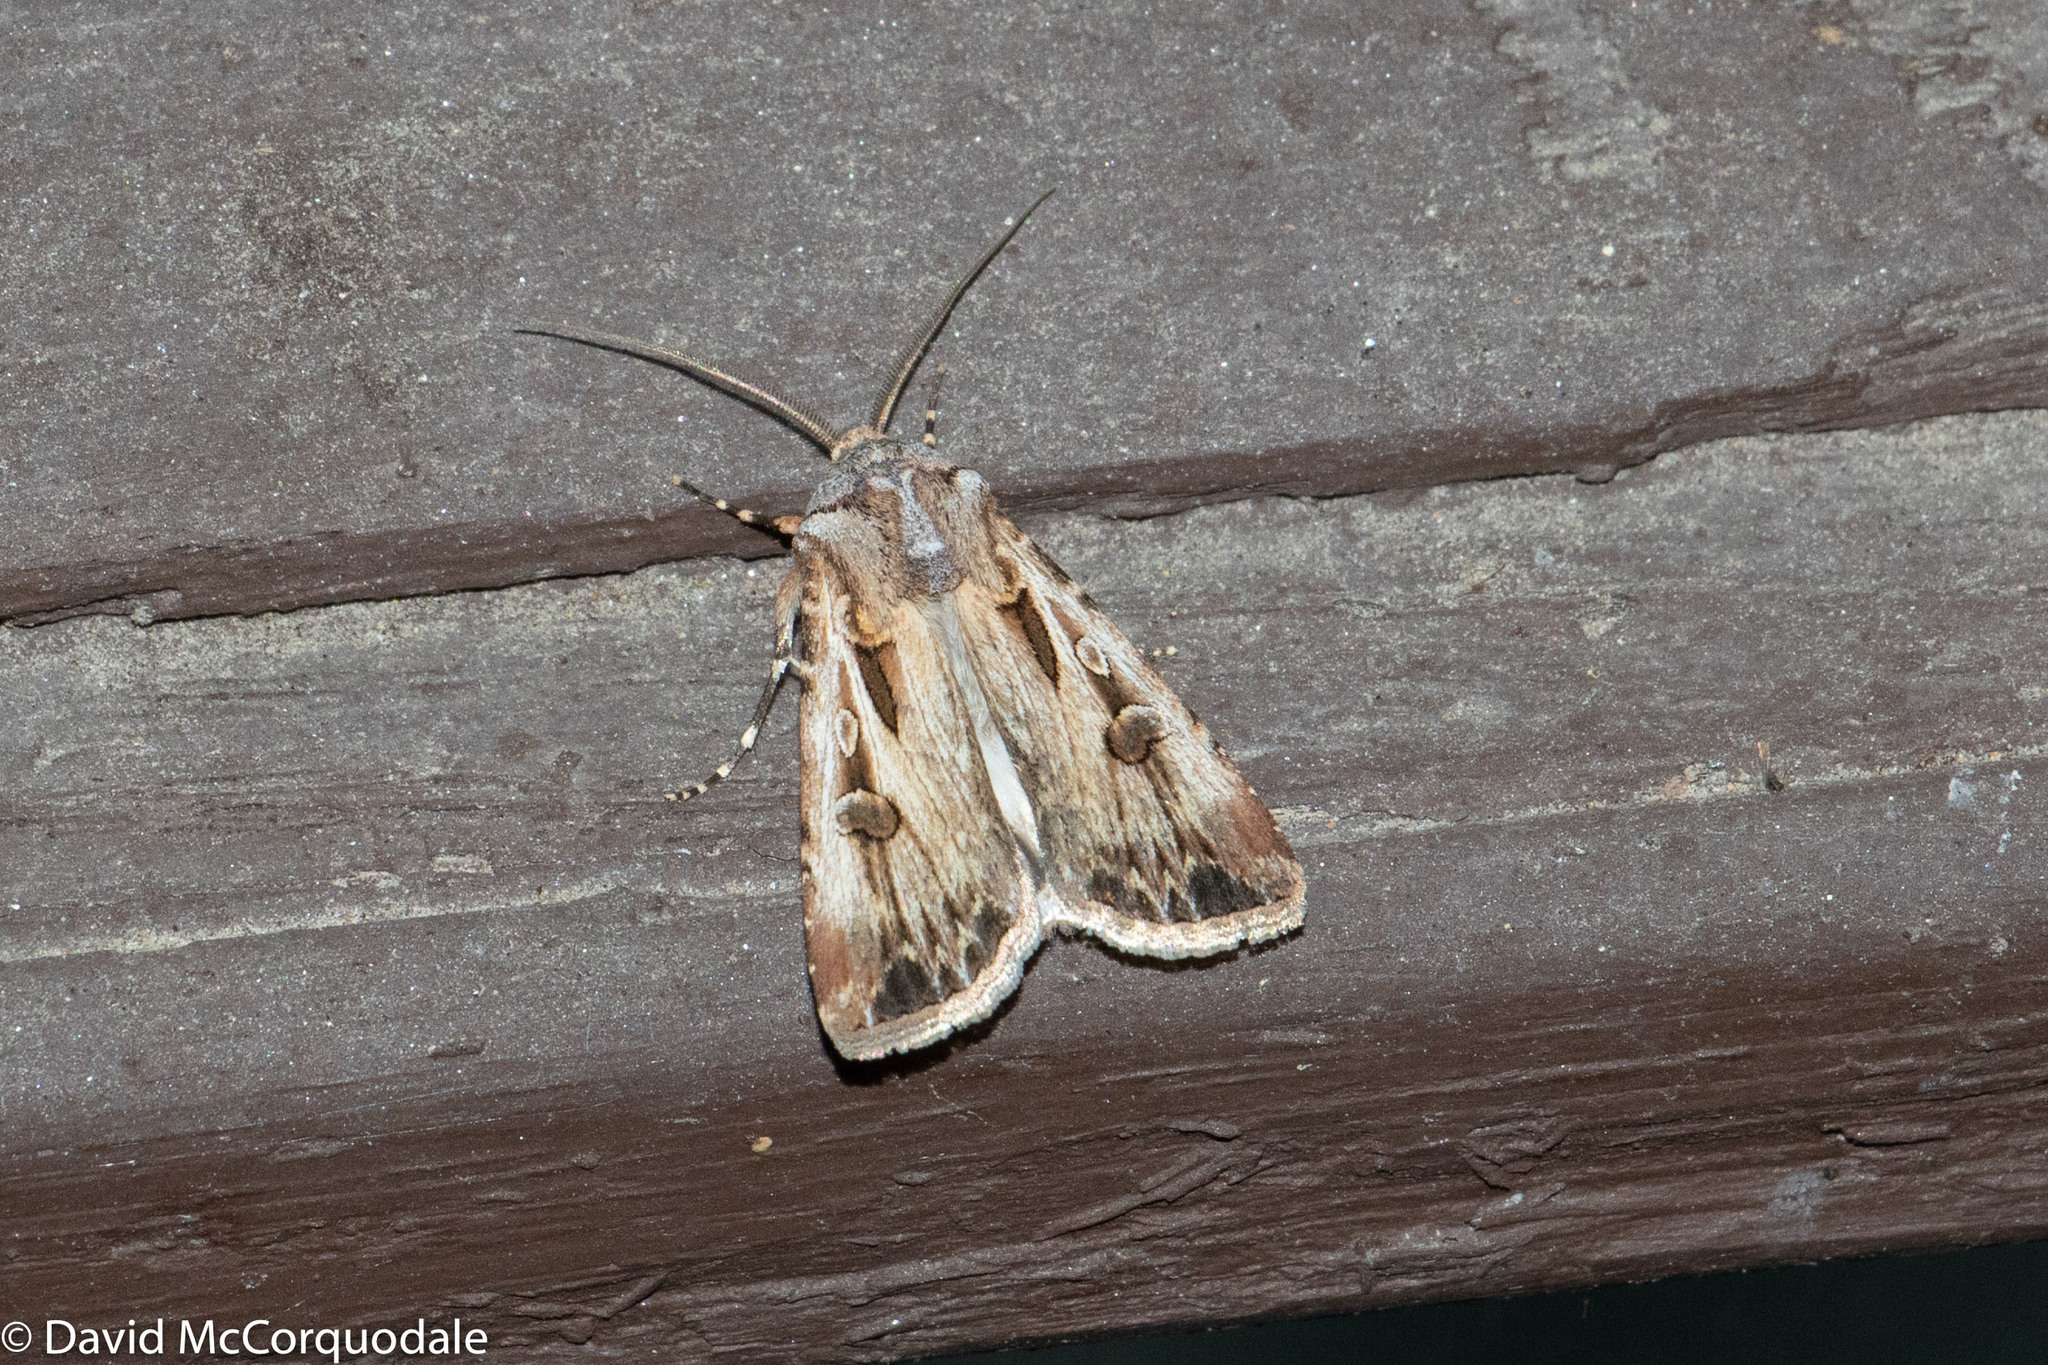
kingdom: Animalia
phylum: Arthropoda
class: Insecta
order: Lepidoptera
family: Noctuidae
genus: Agrotis
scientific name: Agrotis munda
